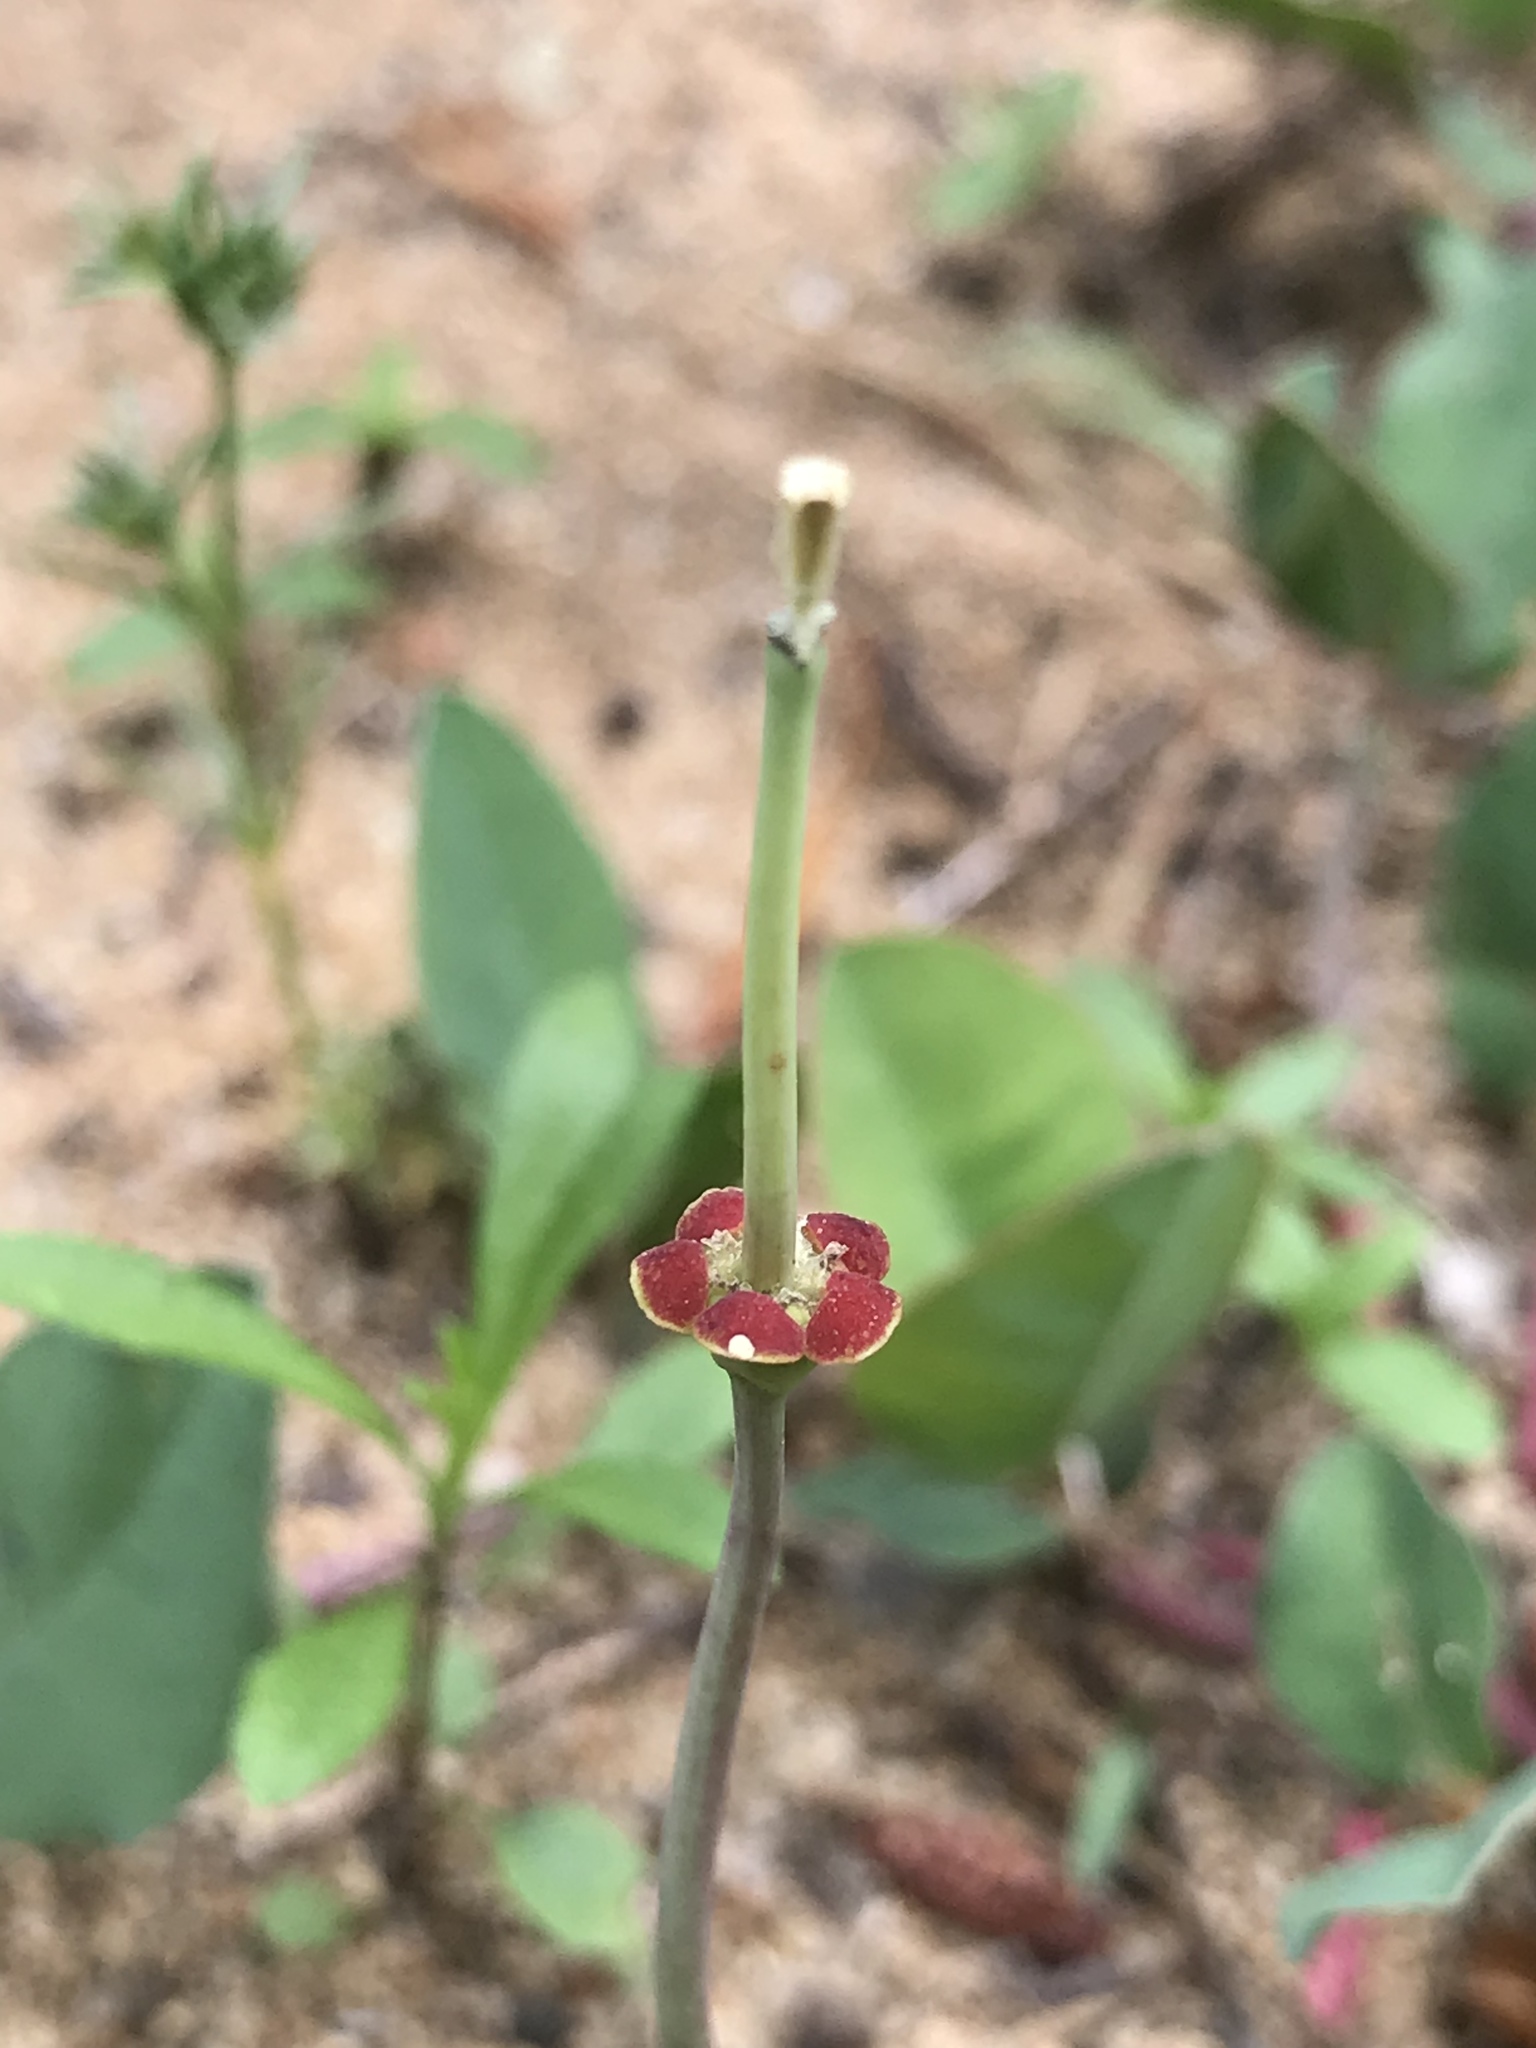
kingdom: Plantae
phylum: Tracheophyta
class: Magnoliopsida
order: Malpighiales
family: Euphorbiaceae
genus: Euphorbia
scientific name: Euphorbia ipecacuanhae
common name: Carolina ipecac
